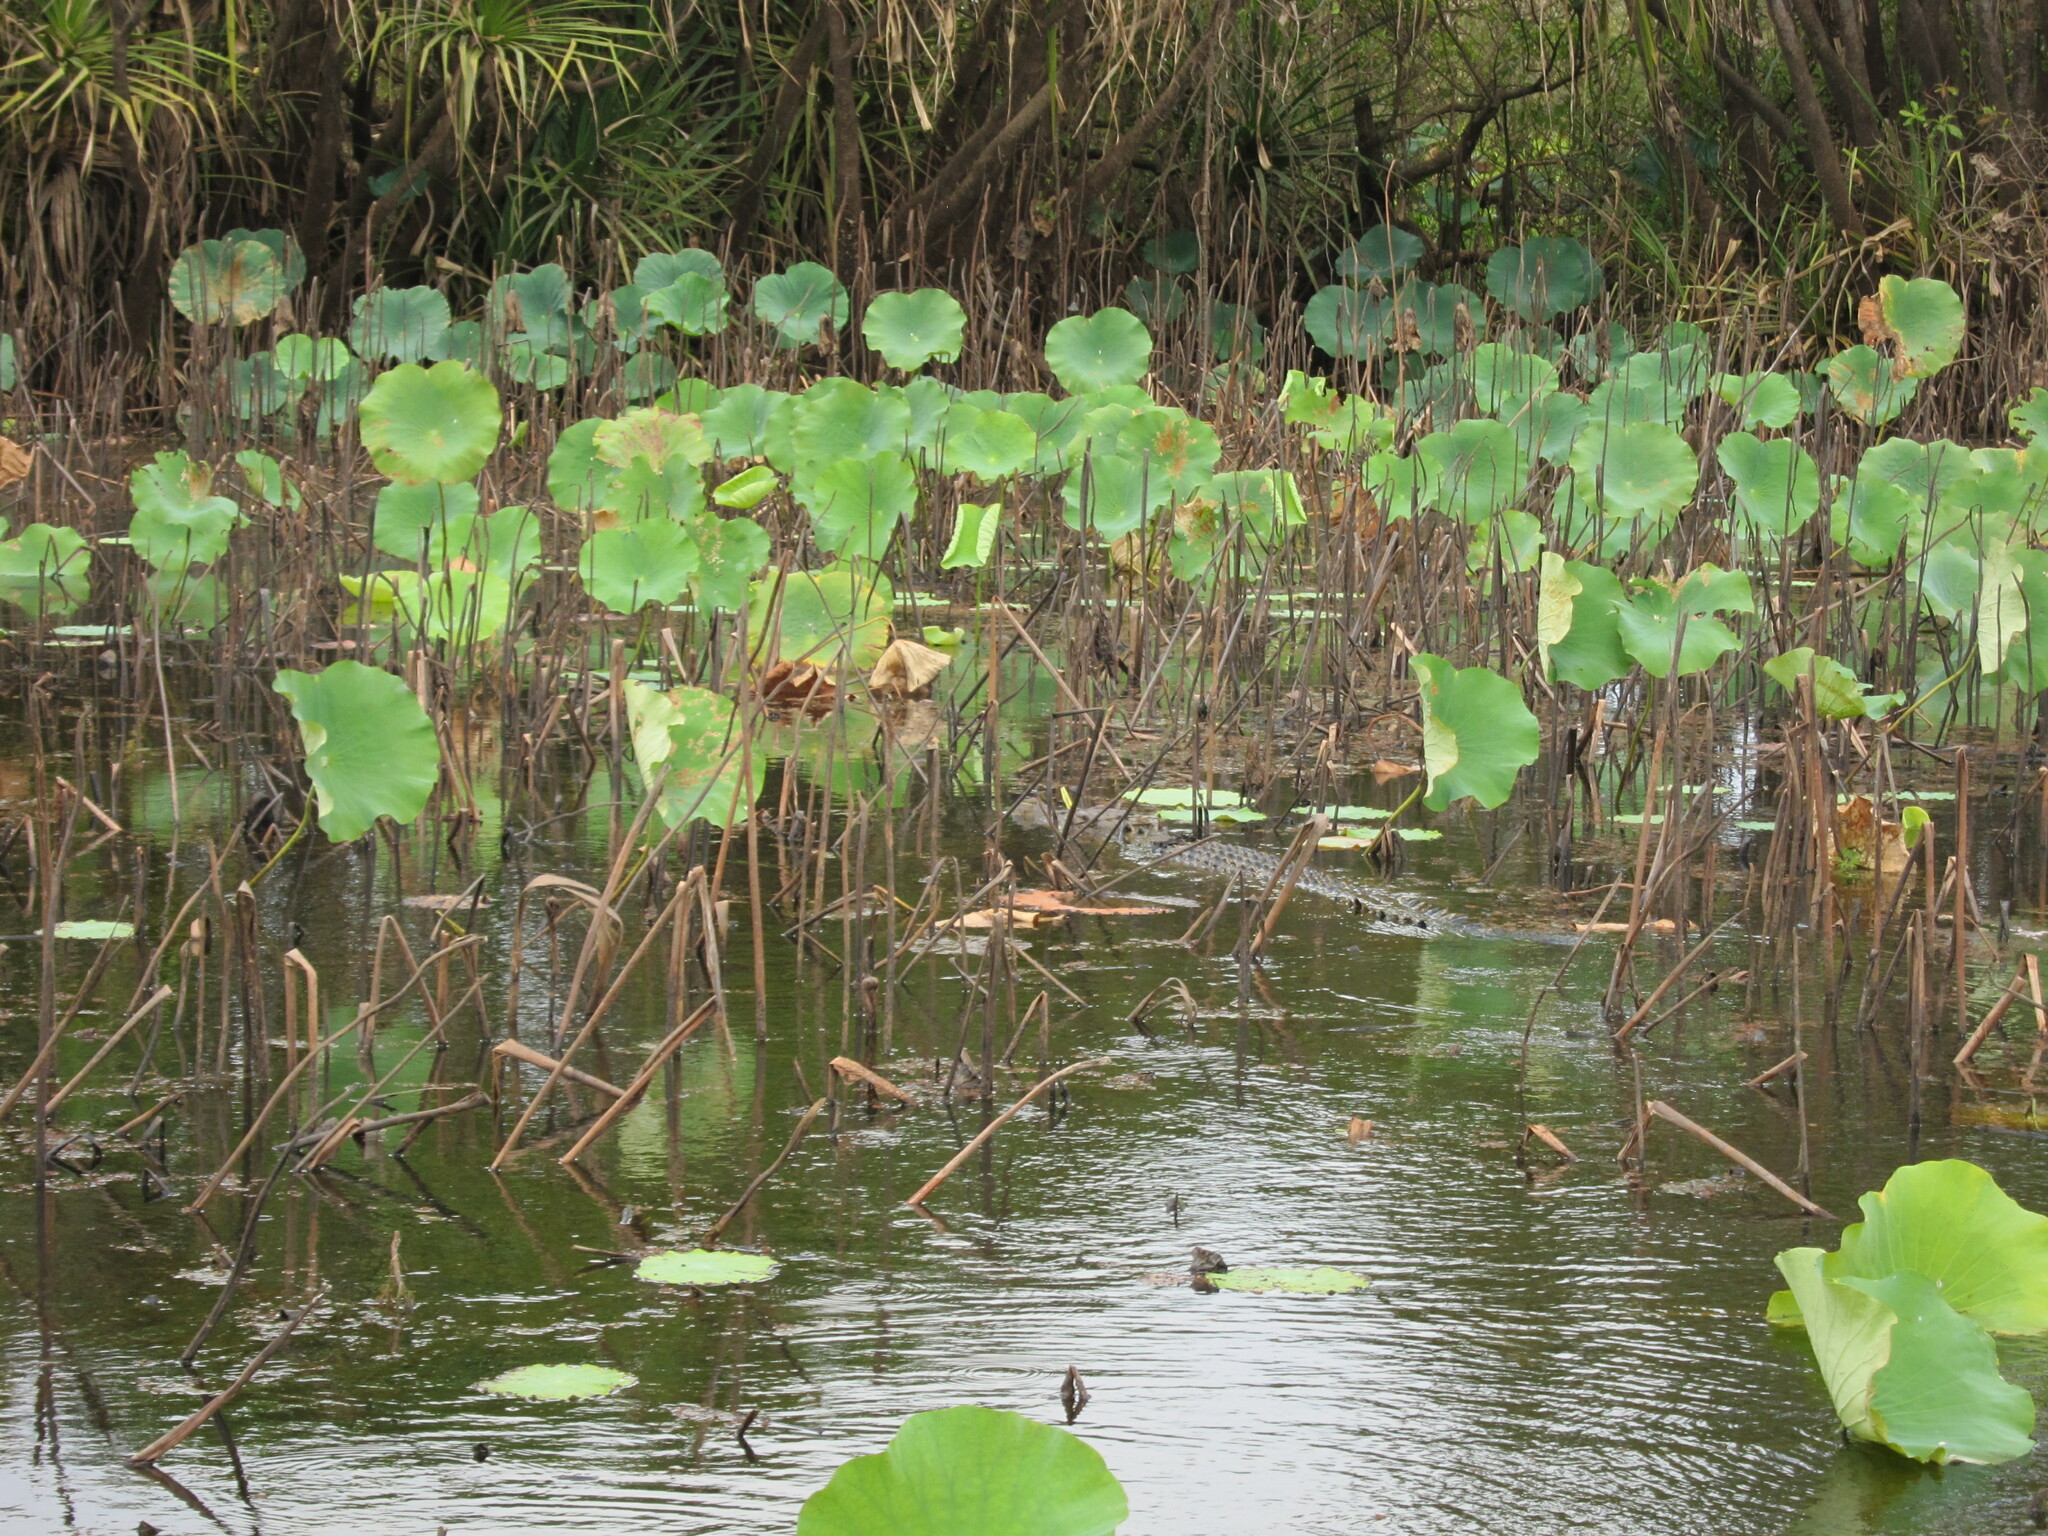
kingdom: Animalia
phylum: Chordata
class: Crocodylia
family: Crocodylidae
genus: Crocodylus
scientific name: Crocodylus porosus
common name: Saltwater crocodile
